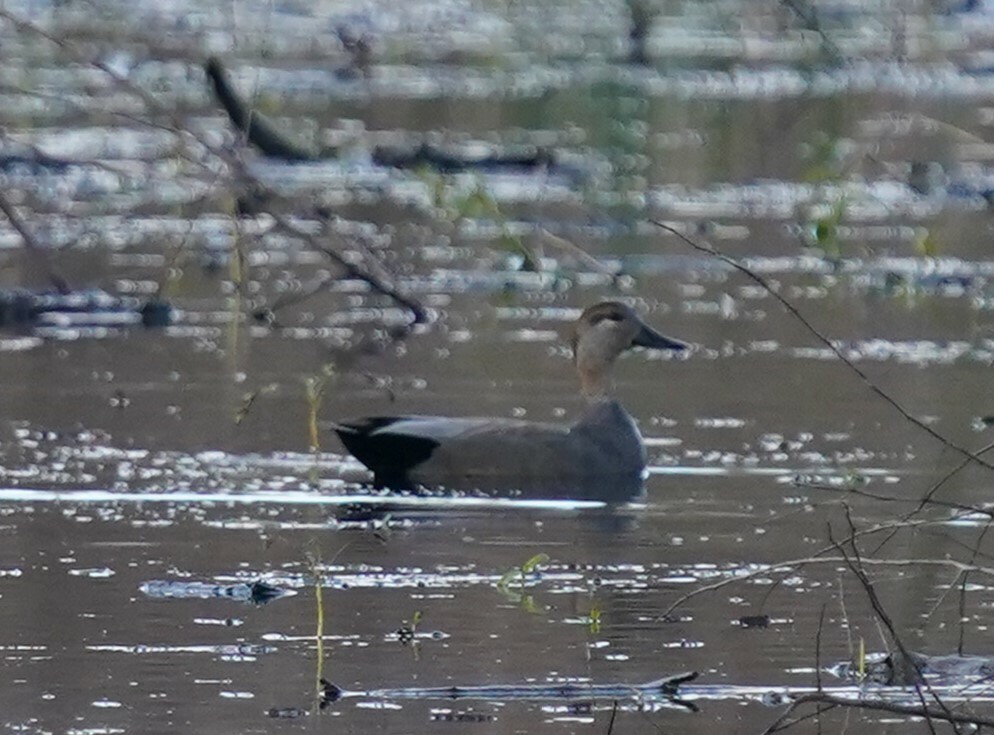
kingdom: Animalia
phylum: Chordata
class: Aves
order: Anseriformes
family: Anatidae
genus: Mareca
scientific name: Mareca strepera
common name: Gadwall
